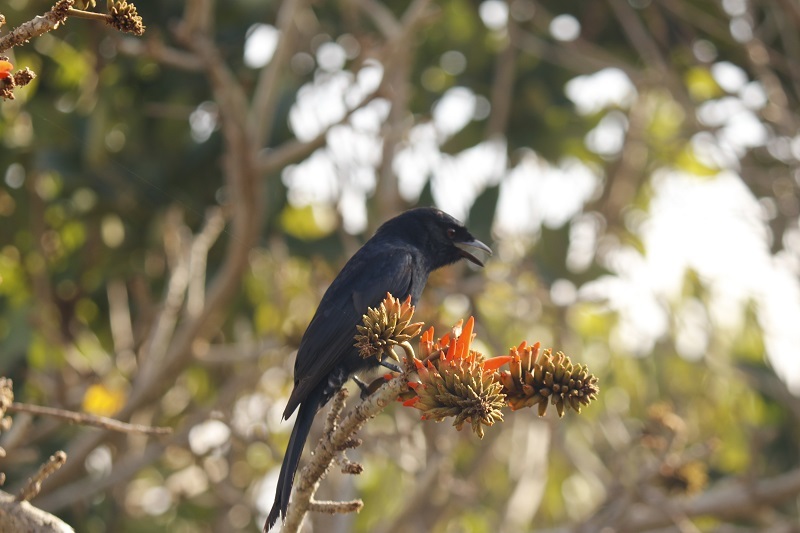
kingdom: Animalia
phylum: Chordata
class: Aves
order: Passeriformes
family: Dicruridae
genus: Dicrurus
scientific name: Dicrurus adsimilis
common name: Fork-tailed drongo
